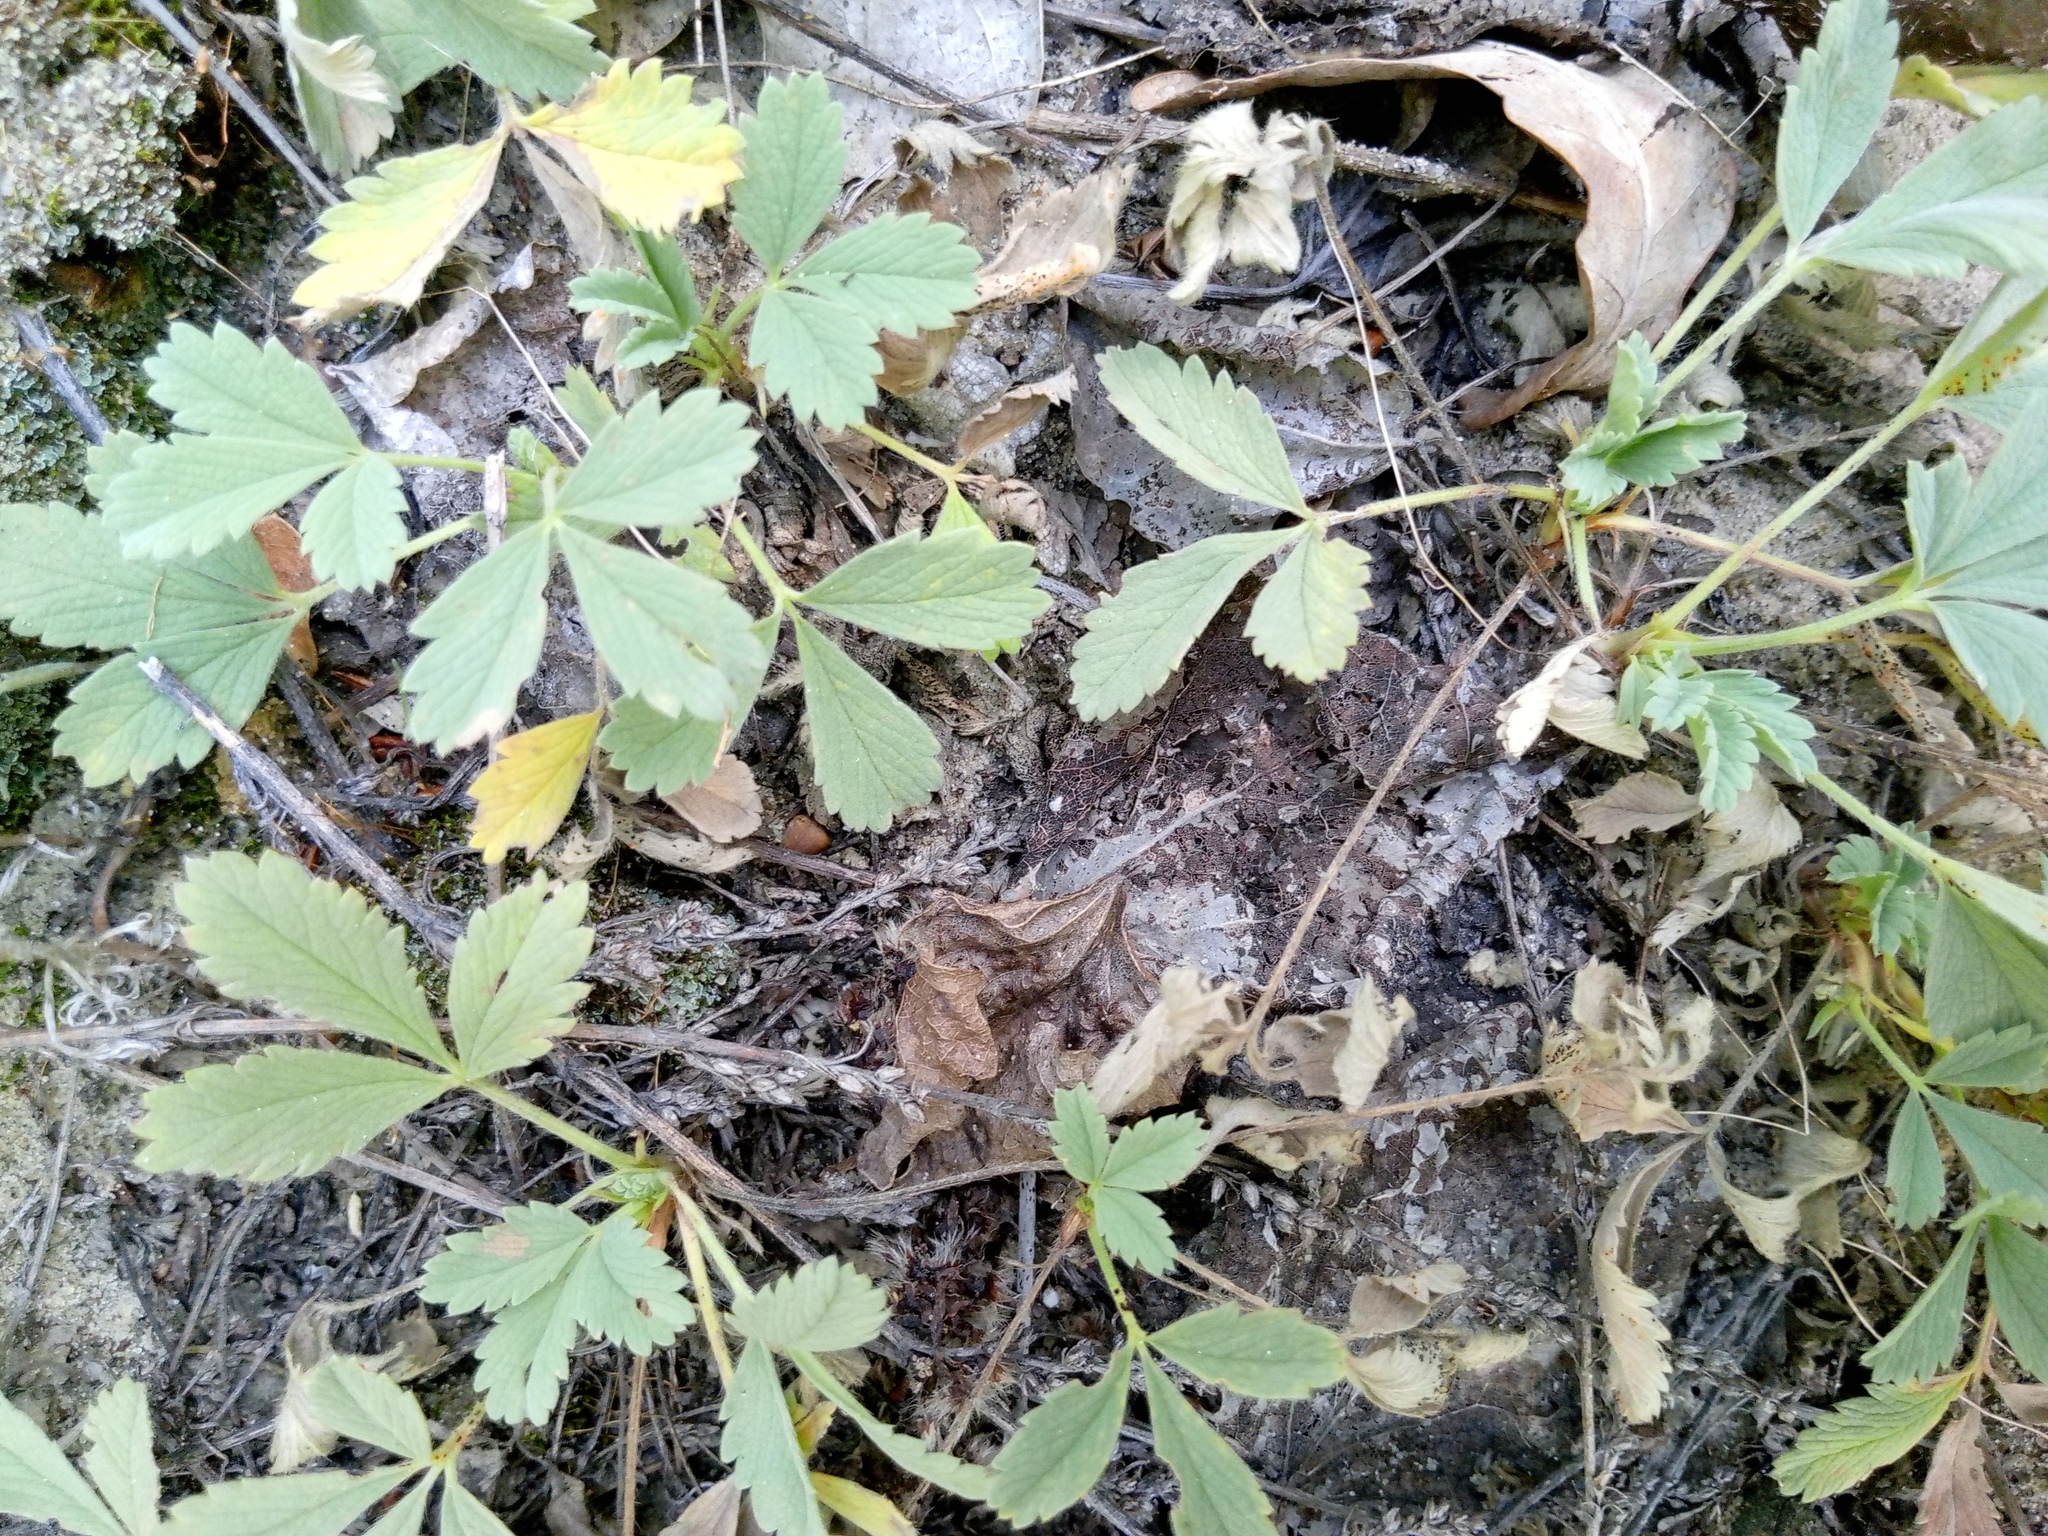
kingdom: Plantae
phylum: Tracheophyta
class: Magnoliopsida
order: Rosales
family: Rosaceae
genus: Potentilla
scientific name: Potentilla incana
